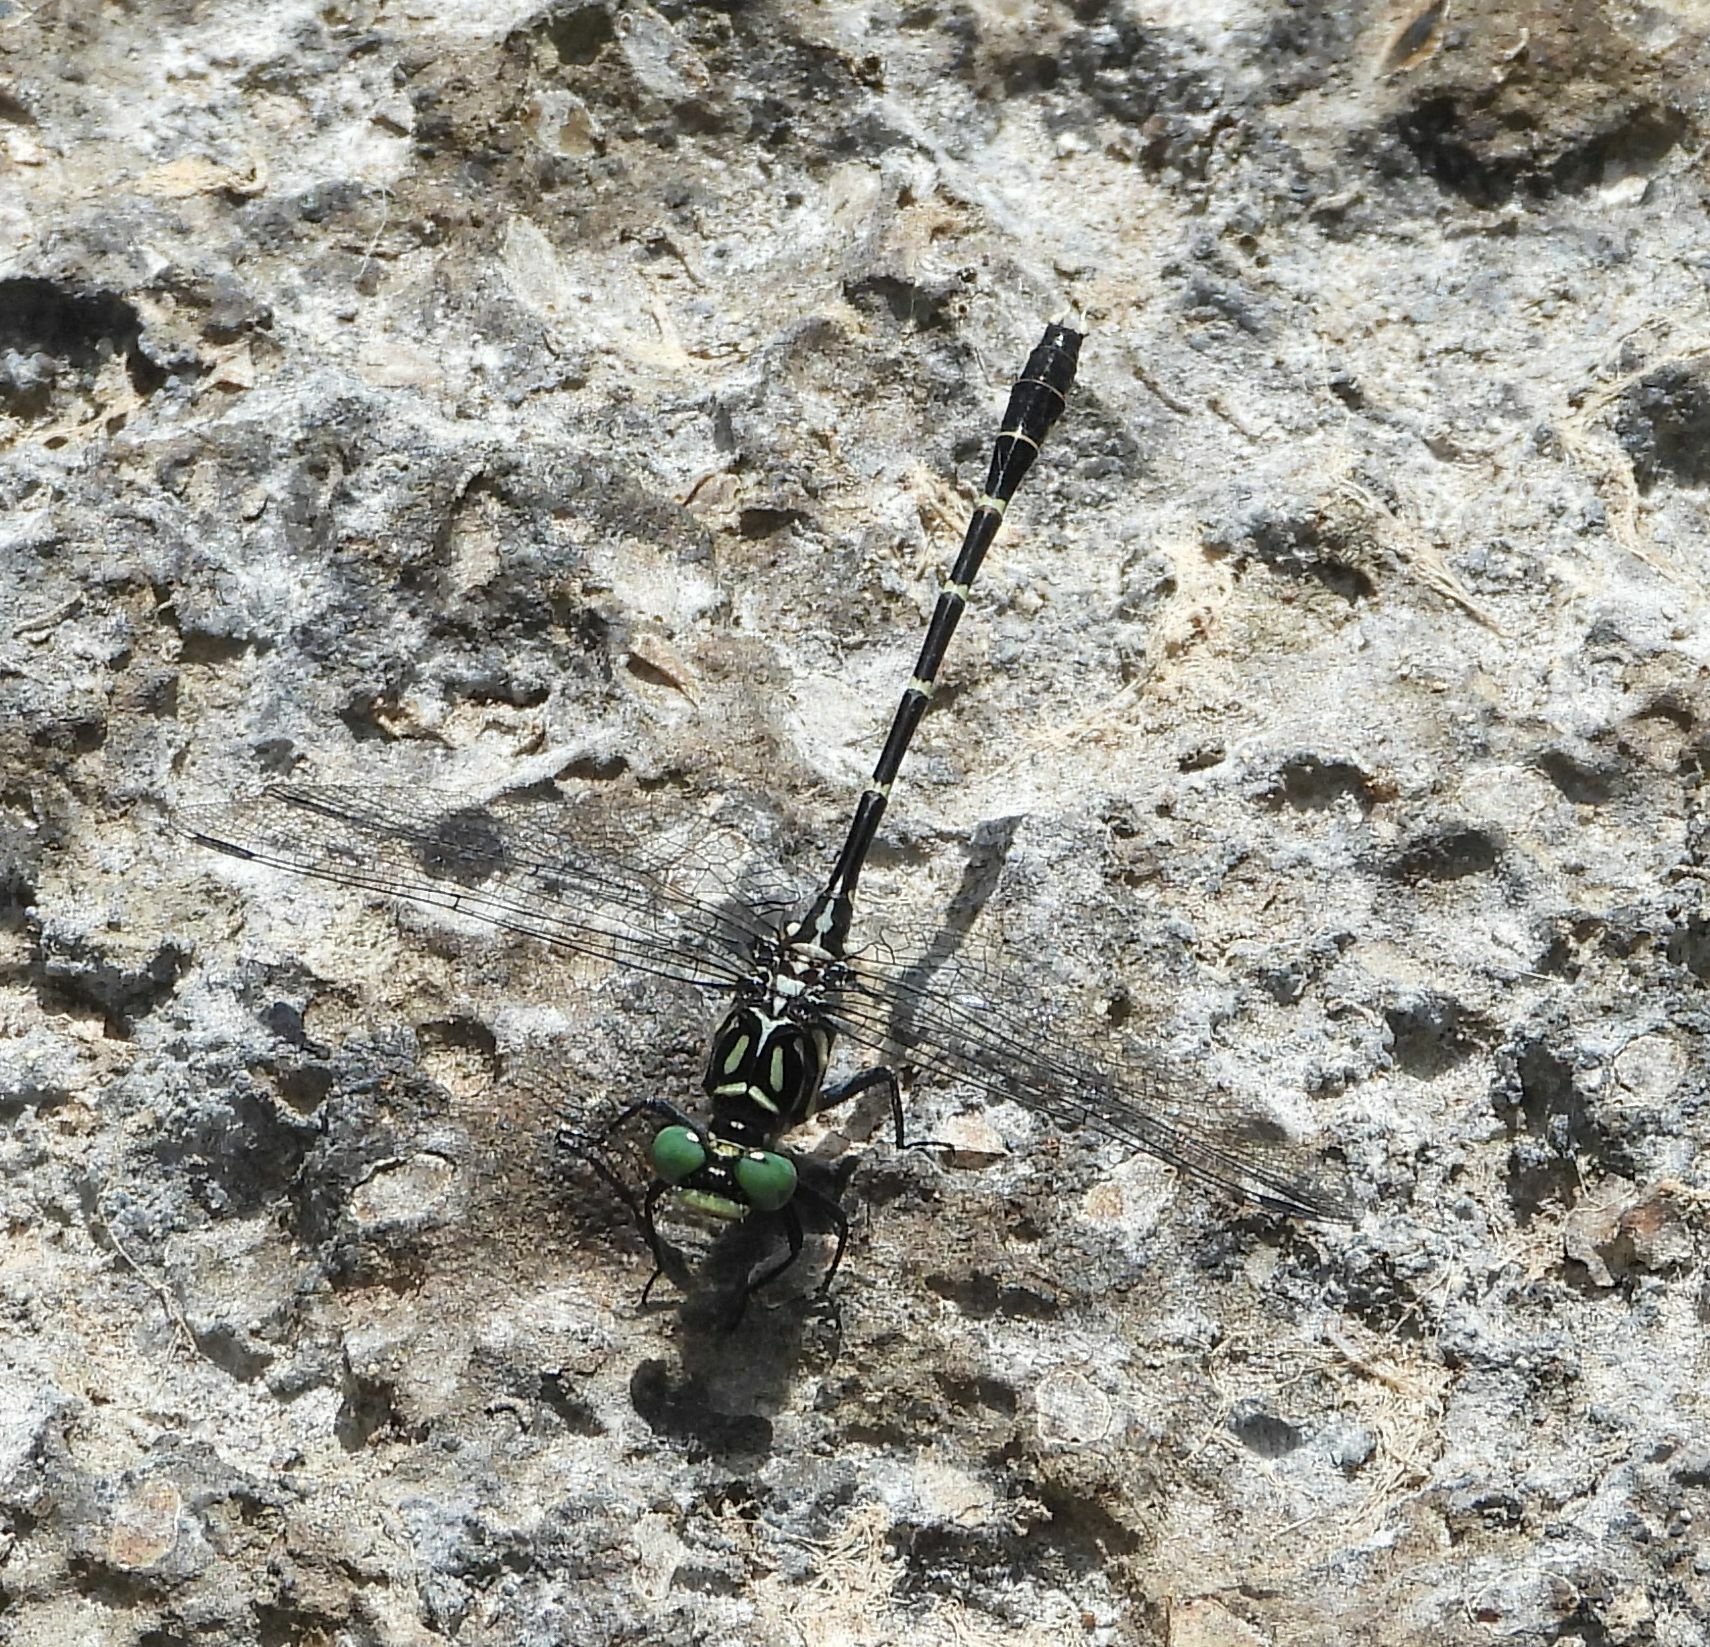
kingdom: Animalia
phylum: Arthropoda
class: Insecta
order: Odonata
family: Gomphidae
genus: Stylogomphus
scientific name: Stylogomphus albistylus
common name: Eastern least clubtail
